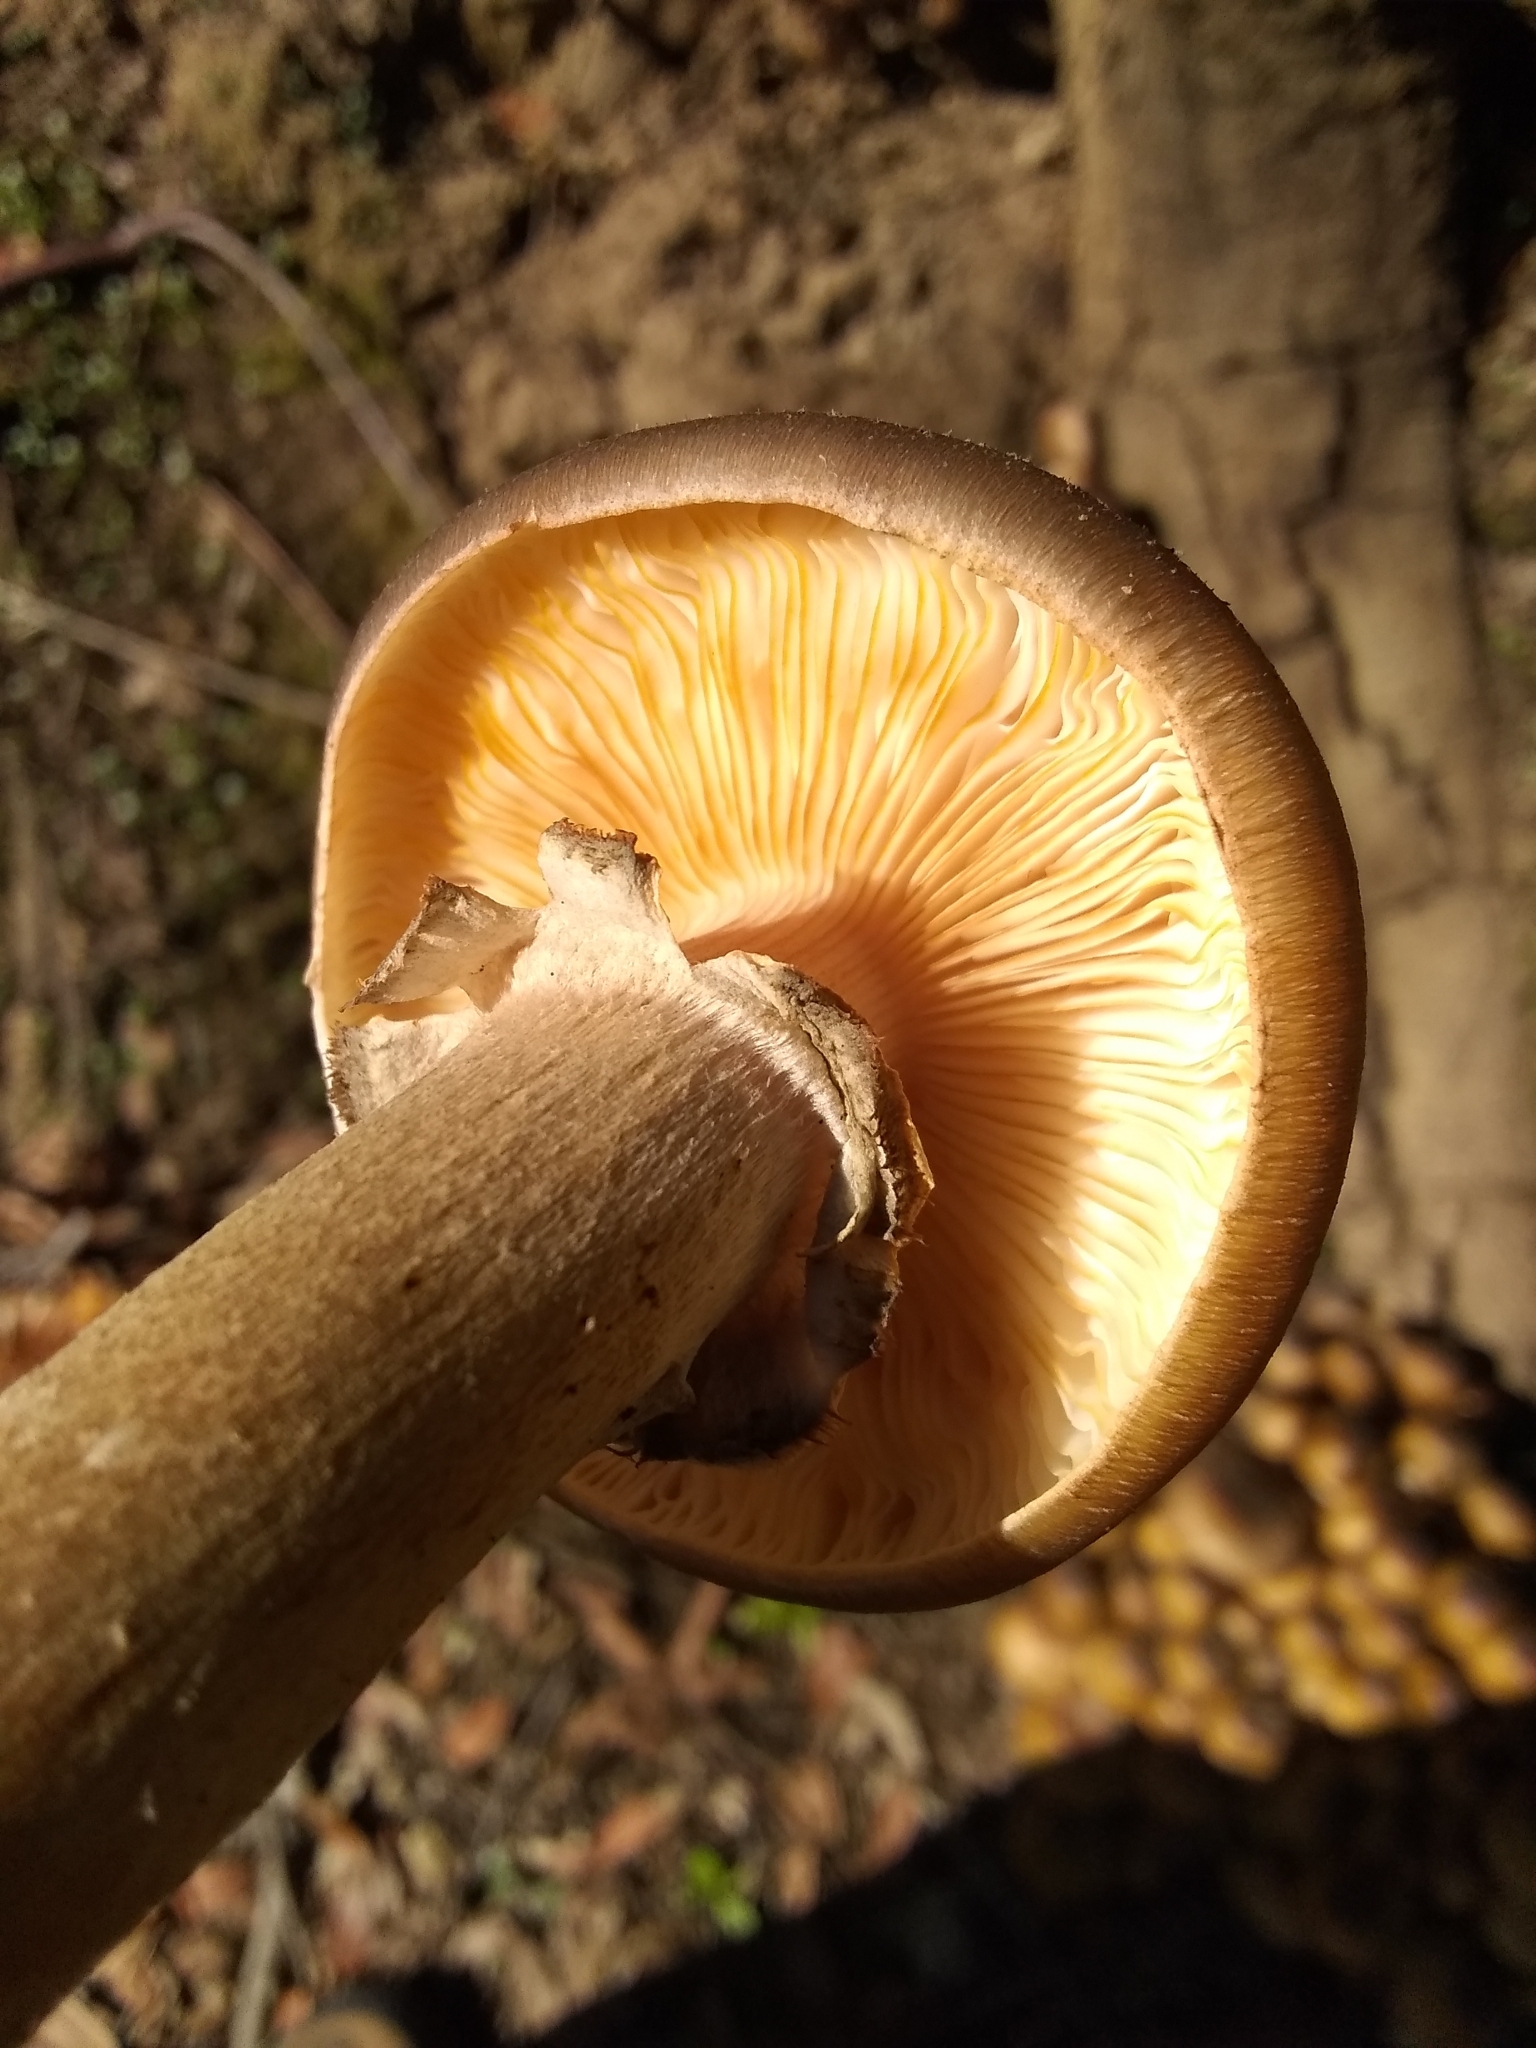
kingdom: Fungi
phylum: Basidiomycota
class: Agaricomycetes
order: Agaricales
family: Physalacriaceae
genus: Armillaria
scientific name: Armillaria mellea
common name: Honey fungus
